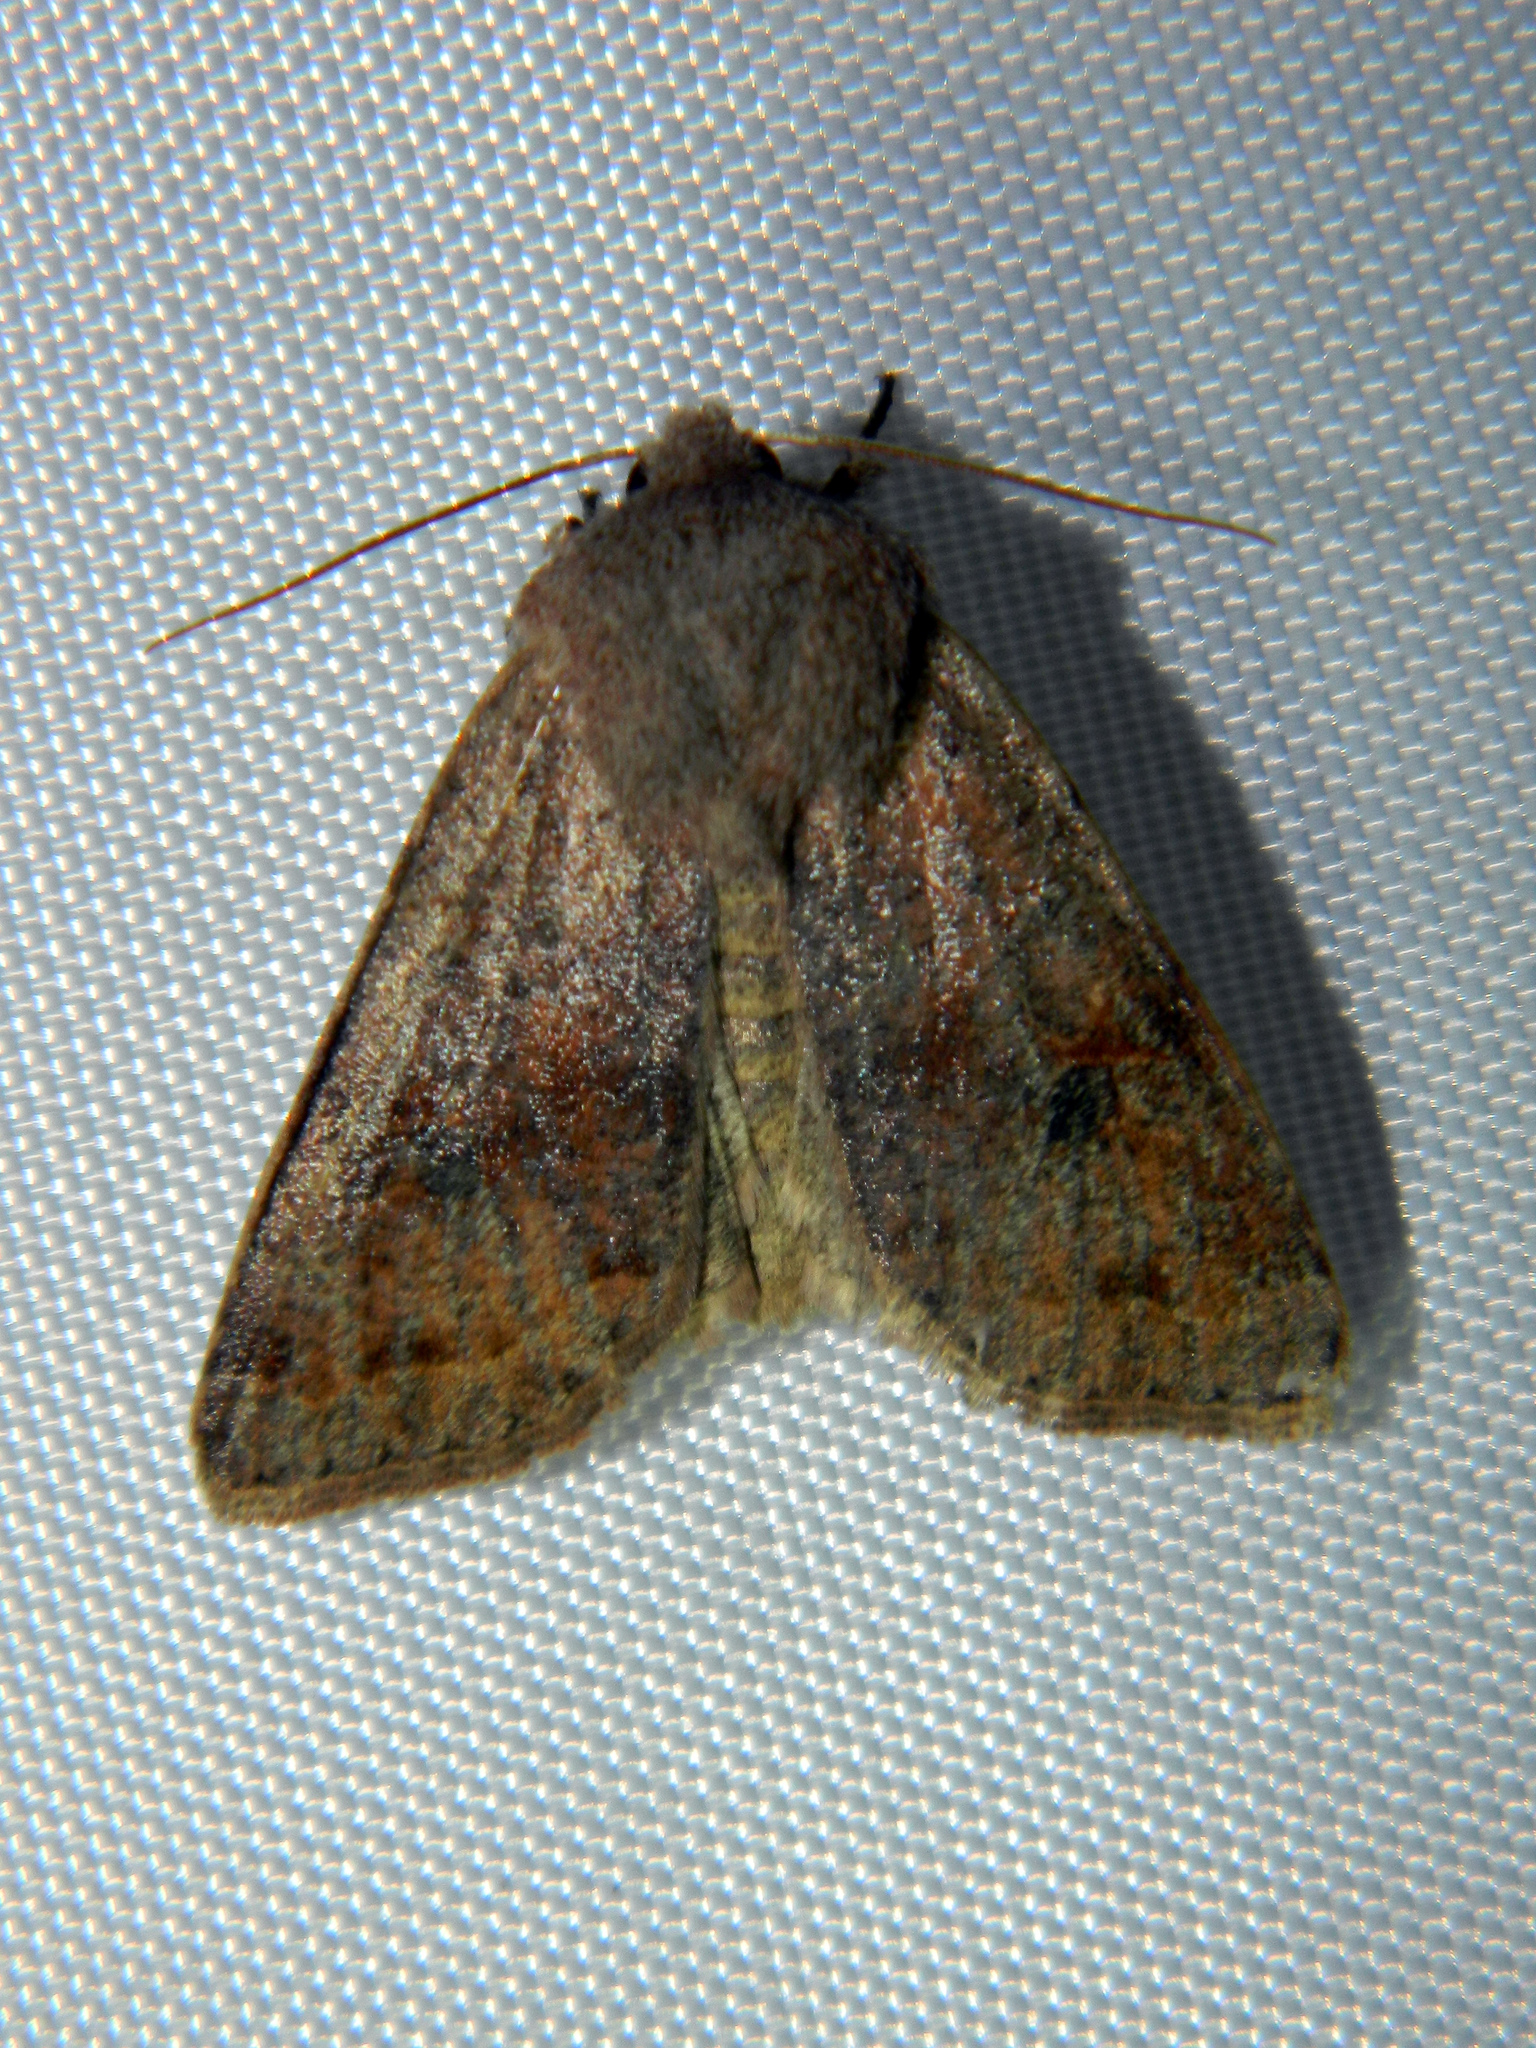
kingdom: Animalia
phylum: Arthropoda
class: Insecta
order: Lepidoptera
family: Noctuidae
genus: Orthosia
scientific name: Orthosia hibisci
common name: Green fruitworm
